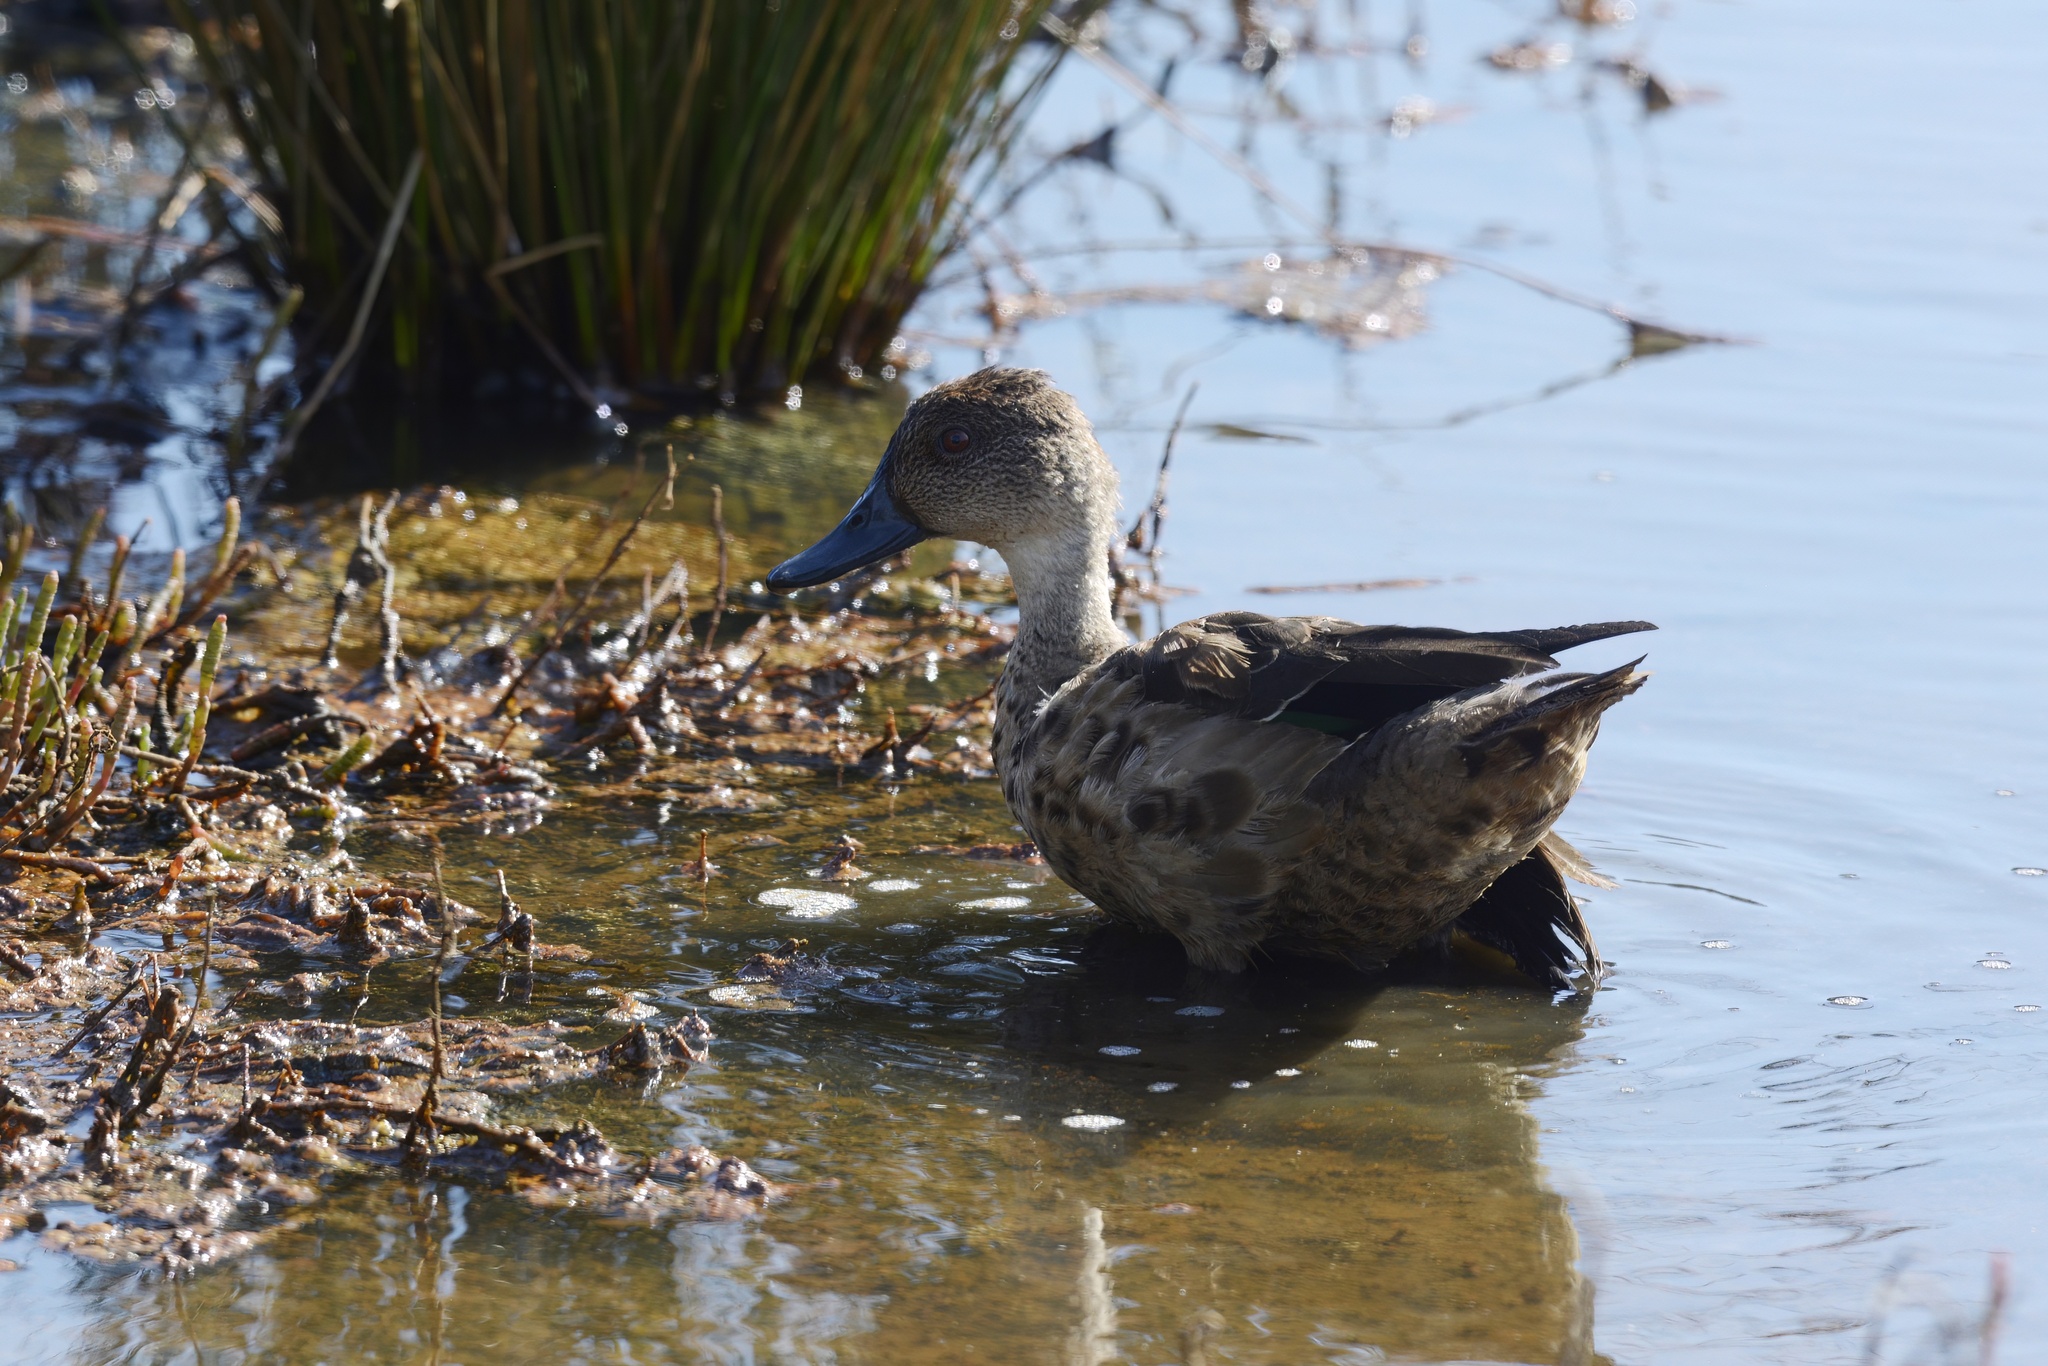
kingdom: Animalia
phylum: Chordata
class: Aves
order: Anseriformes
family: Anatidae
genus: Anas
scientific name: Anas gracilis
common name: Grey teal
